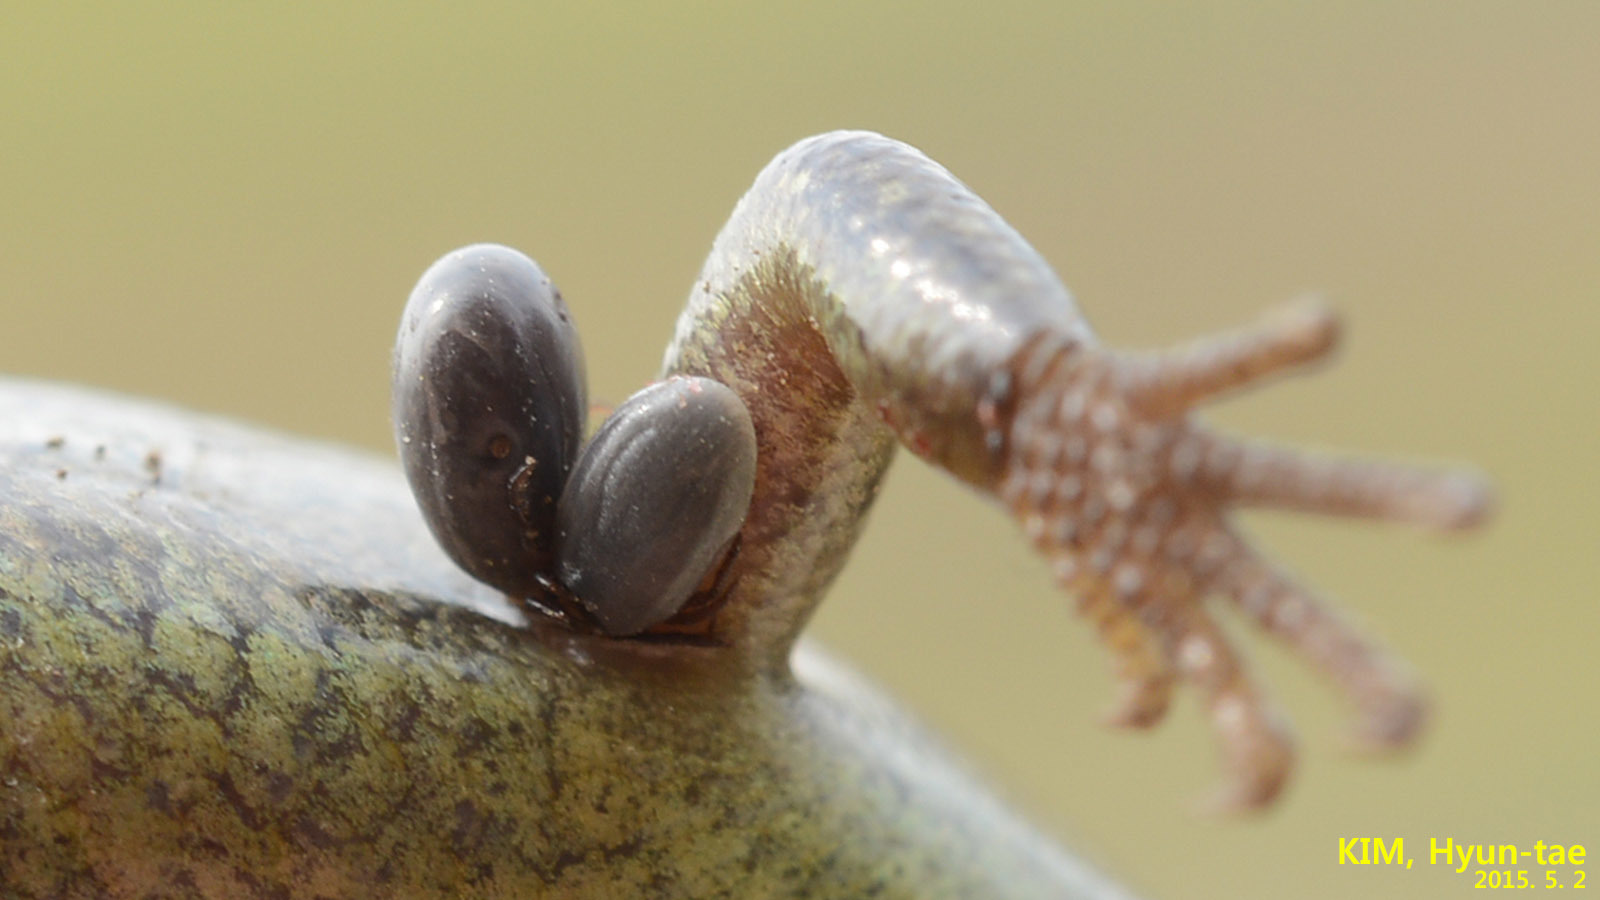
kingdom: Animalia
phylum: Arthropoda
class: Arachnida
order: Ixodida
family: Ixodidae
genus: Ixodes
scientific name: Ixodes nipponensis
